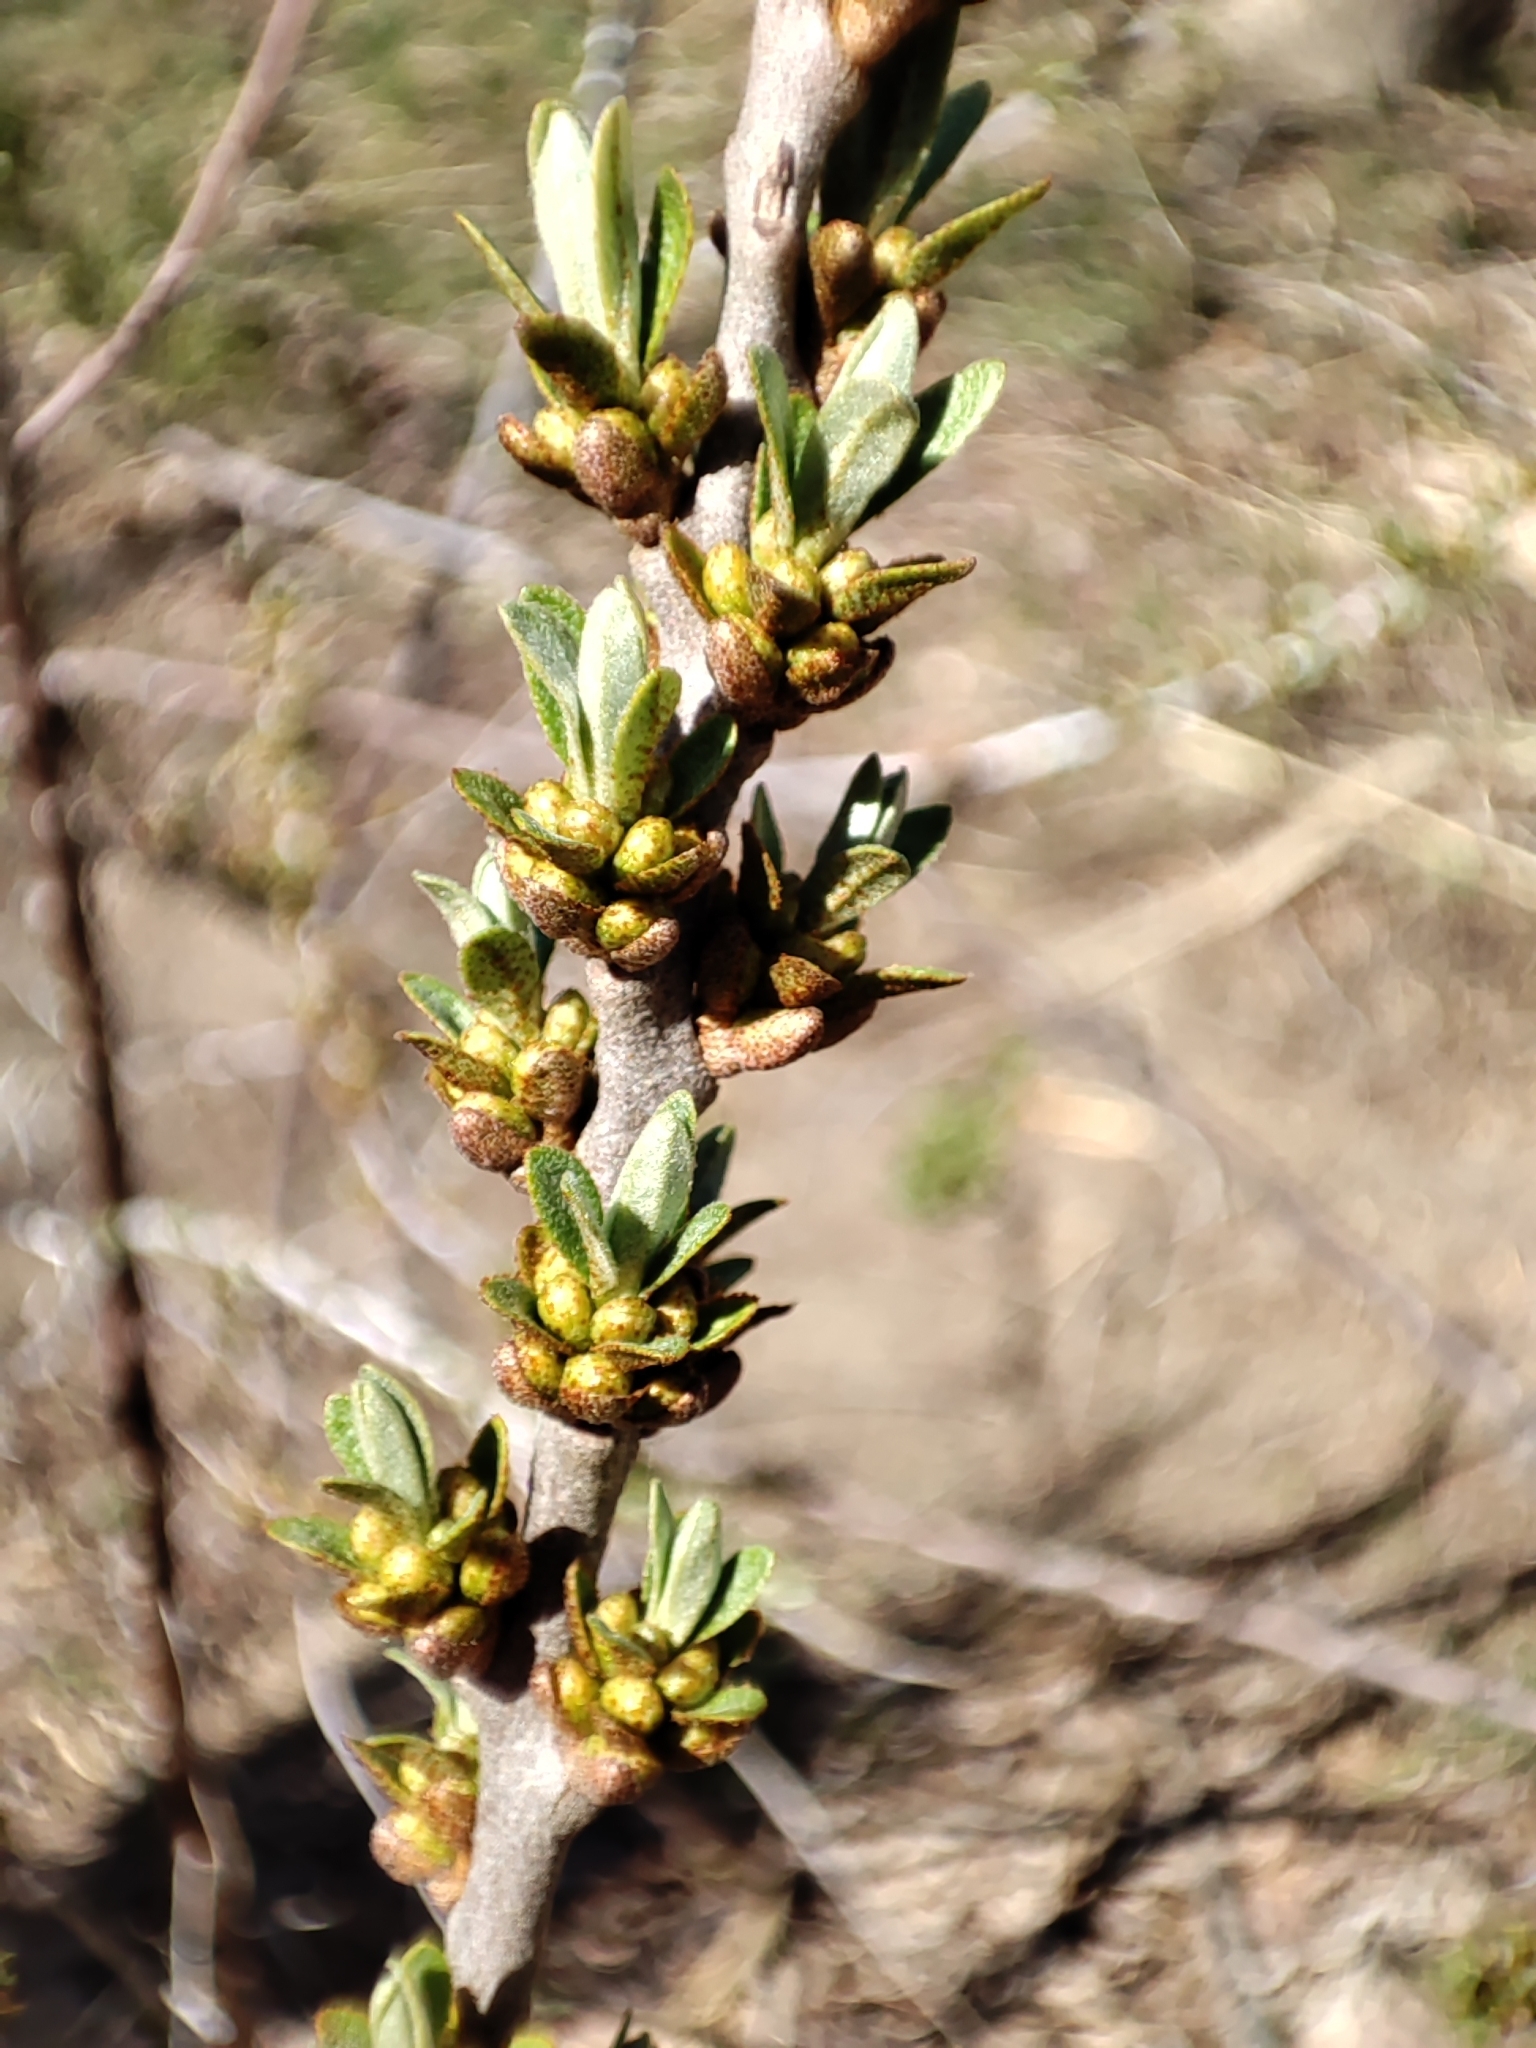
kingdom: Plantae
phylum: Tracheophyta
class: Magnoliopsida
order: Rosales
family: Elaeagnaceae
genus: Hippophae
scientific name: Hippophae rhamnoides
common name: Sea-buckthorn
